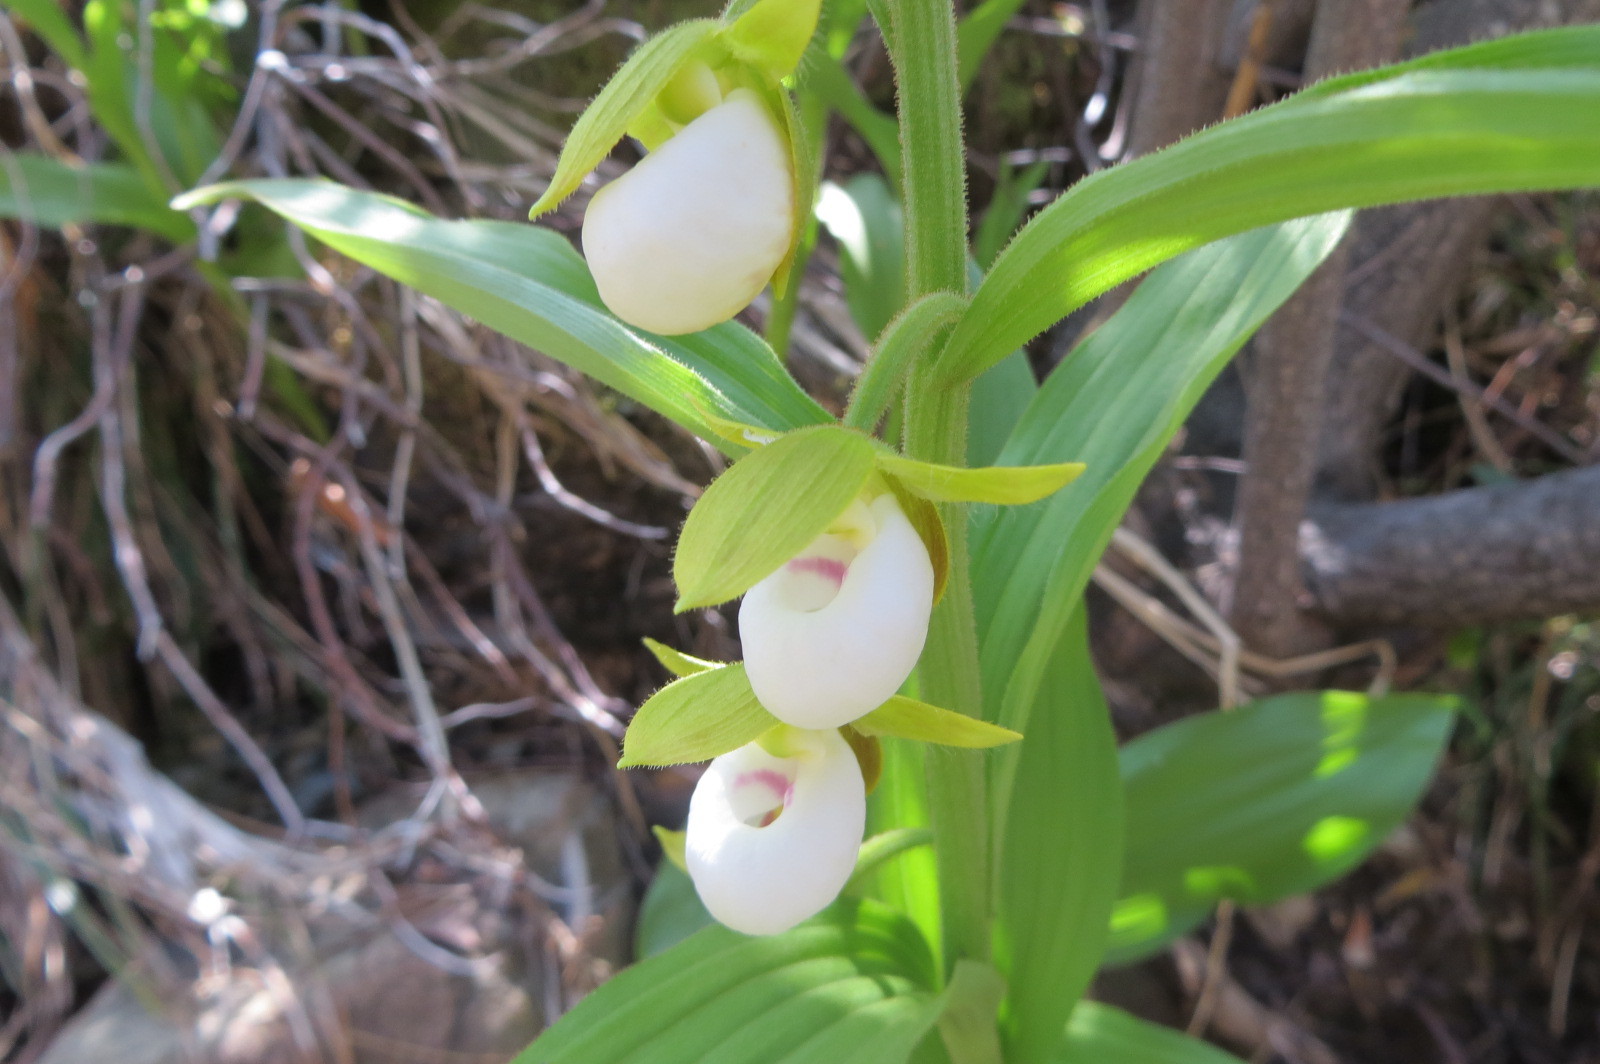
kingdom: Plantae
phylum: Tracheophyta
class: Liliopsida
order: Asparagales
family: Orchidaceae
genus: Cypripedium
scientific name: Cypripedium californicum
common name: California lady's slipper
